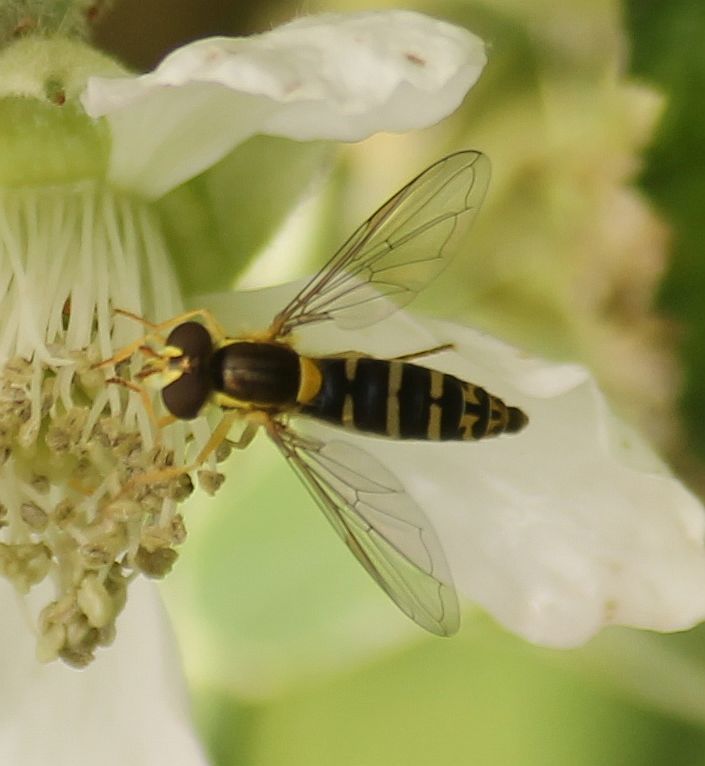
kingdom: Animalia
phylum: Arthropoda
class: Insecta
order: Diptera
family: Syrphidae
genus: Sphaerophoria
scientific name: Sphaerophoria scripta
